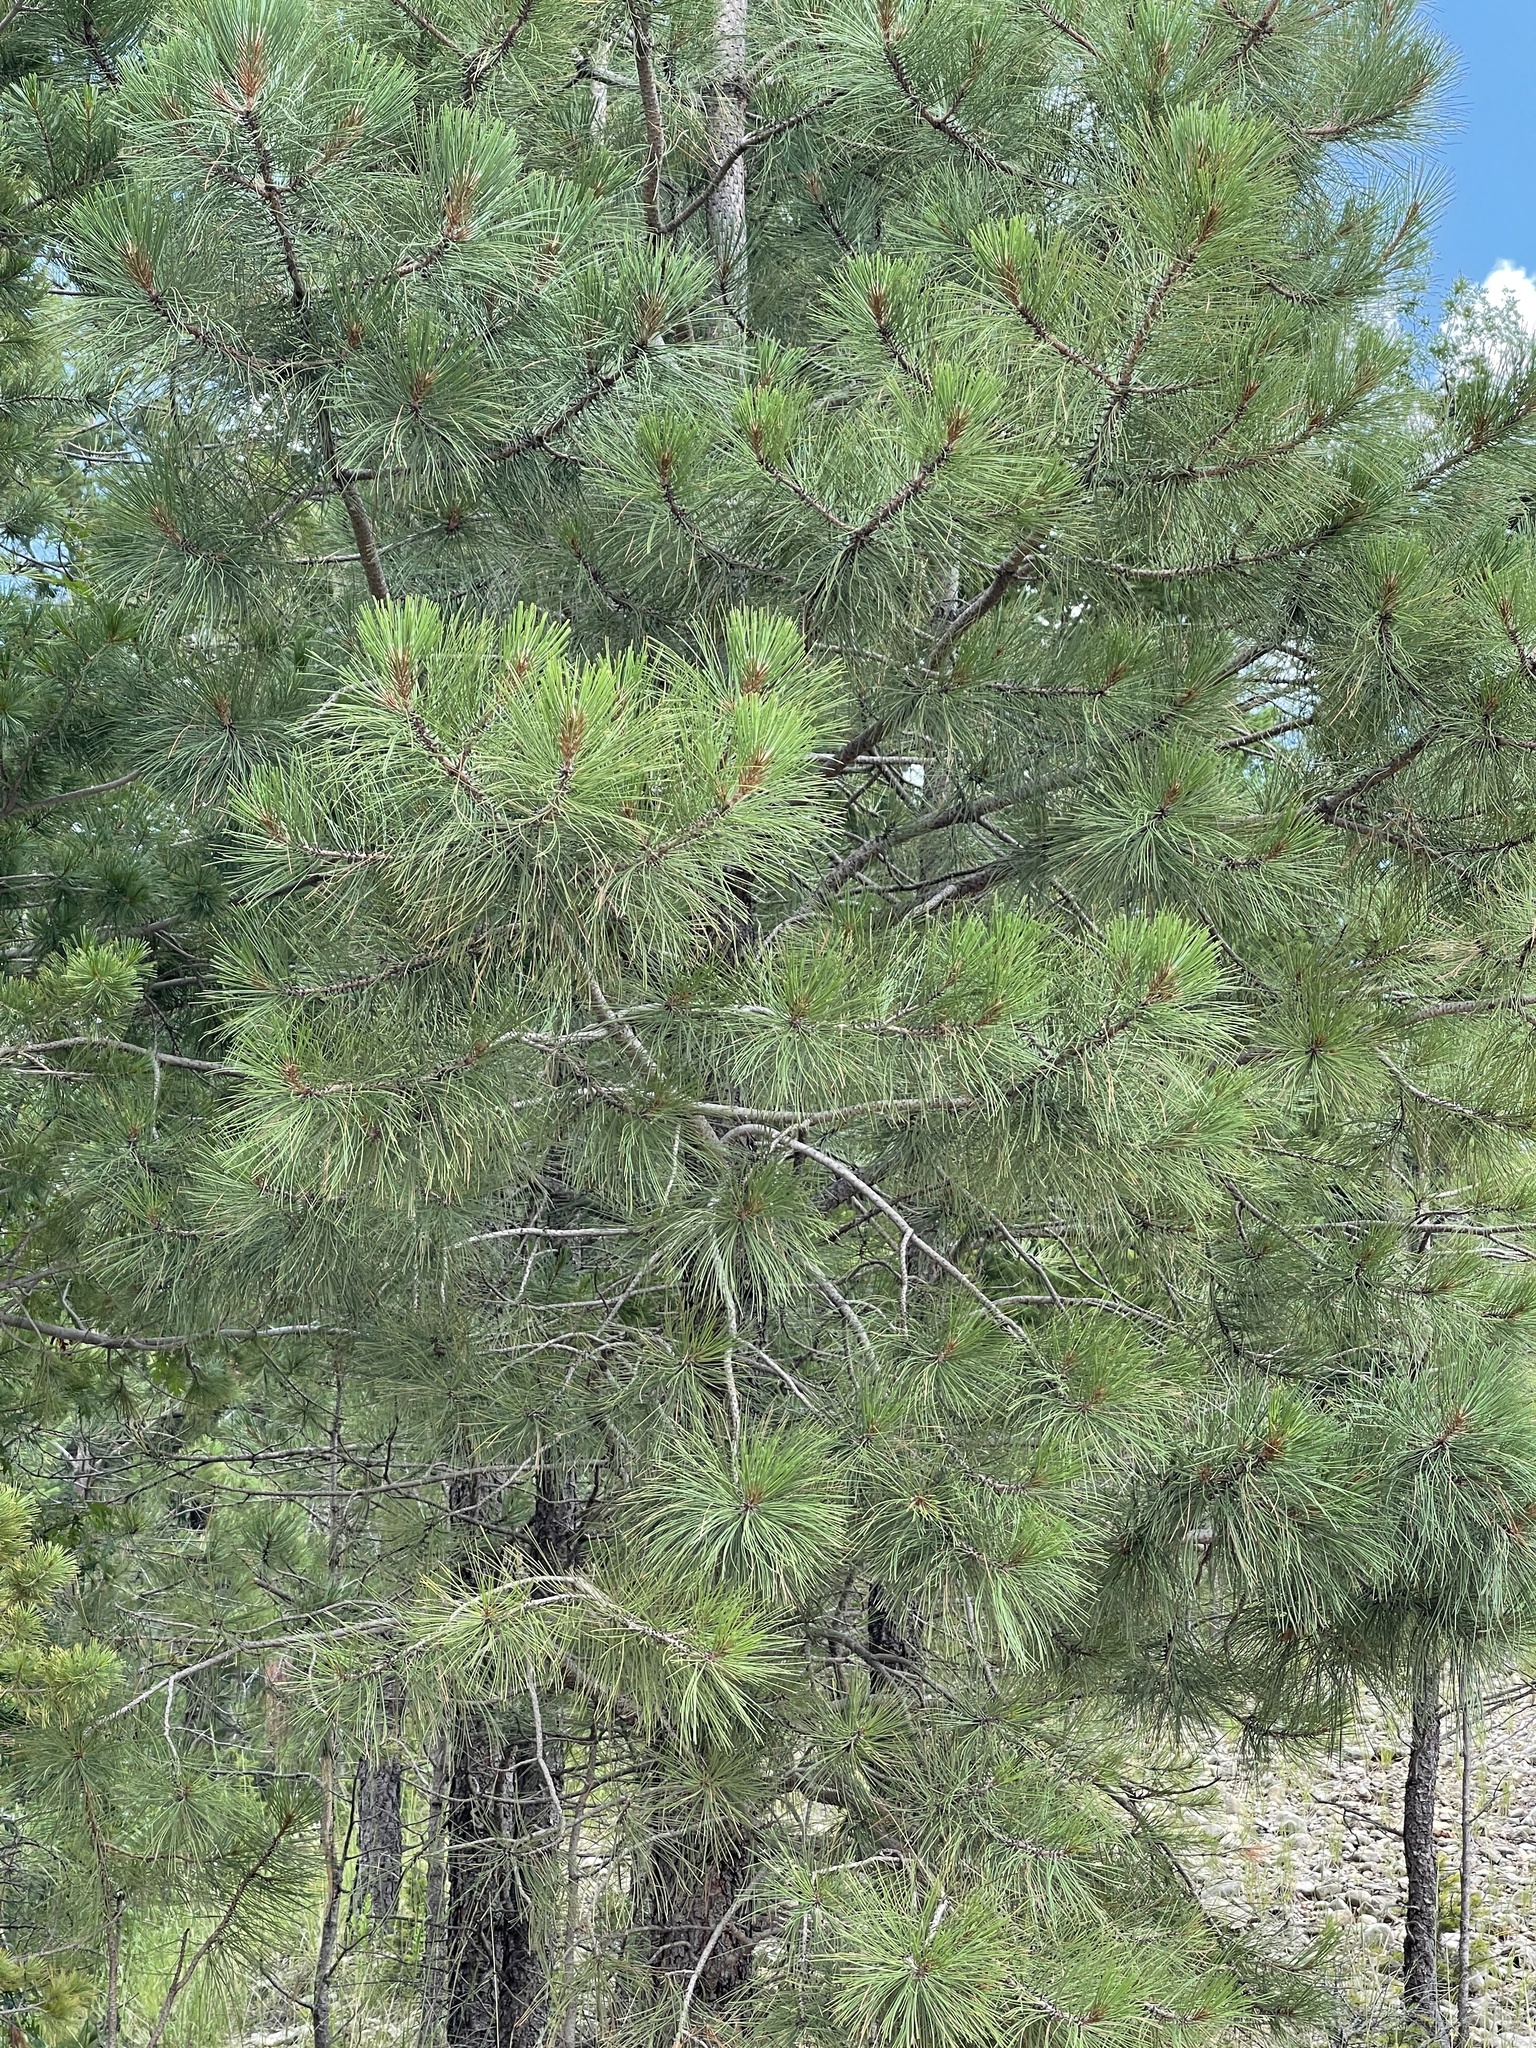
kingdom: Plantae
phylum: Tracheophyta
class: Pinopsida
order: Pinales
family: Pinaceae
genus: Pinus
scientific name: Pinus ponderosa
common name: Western yellow-pine
